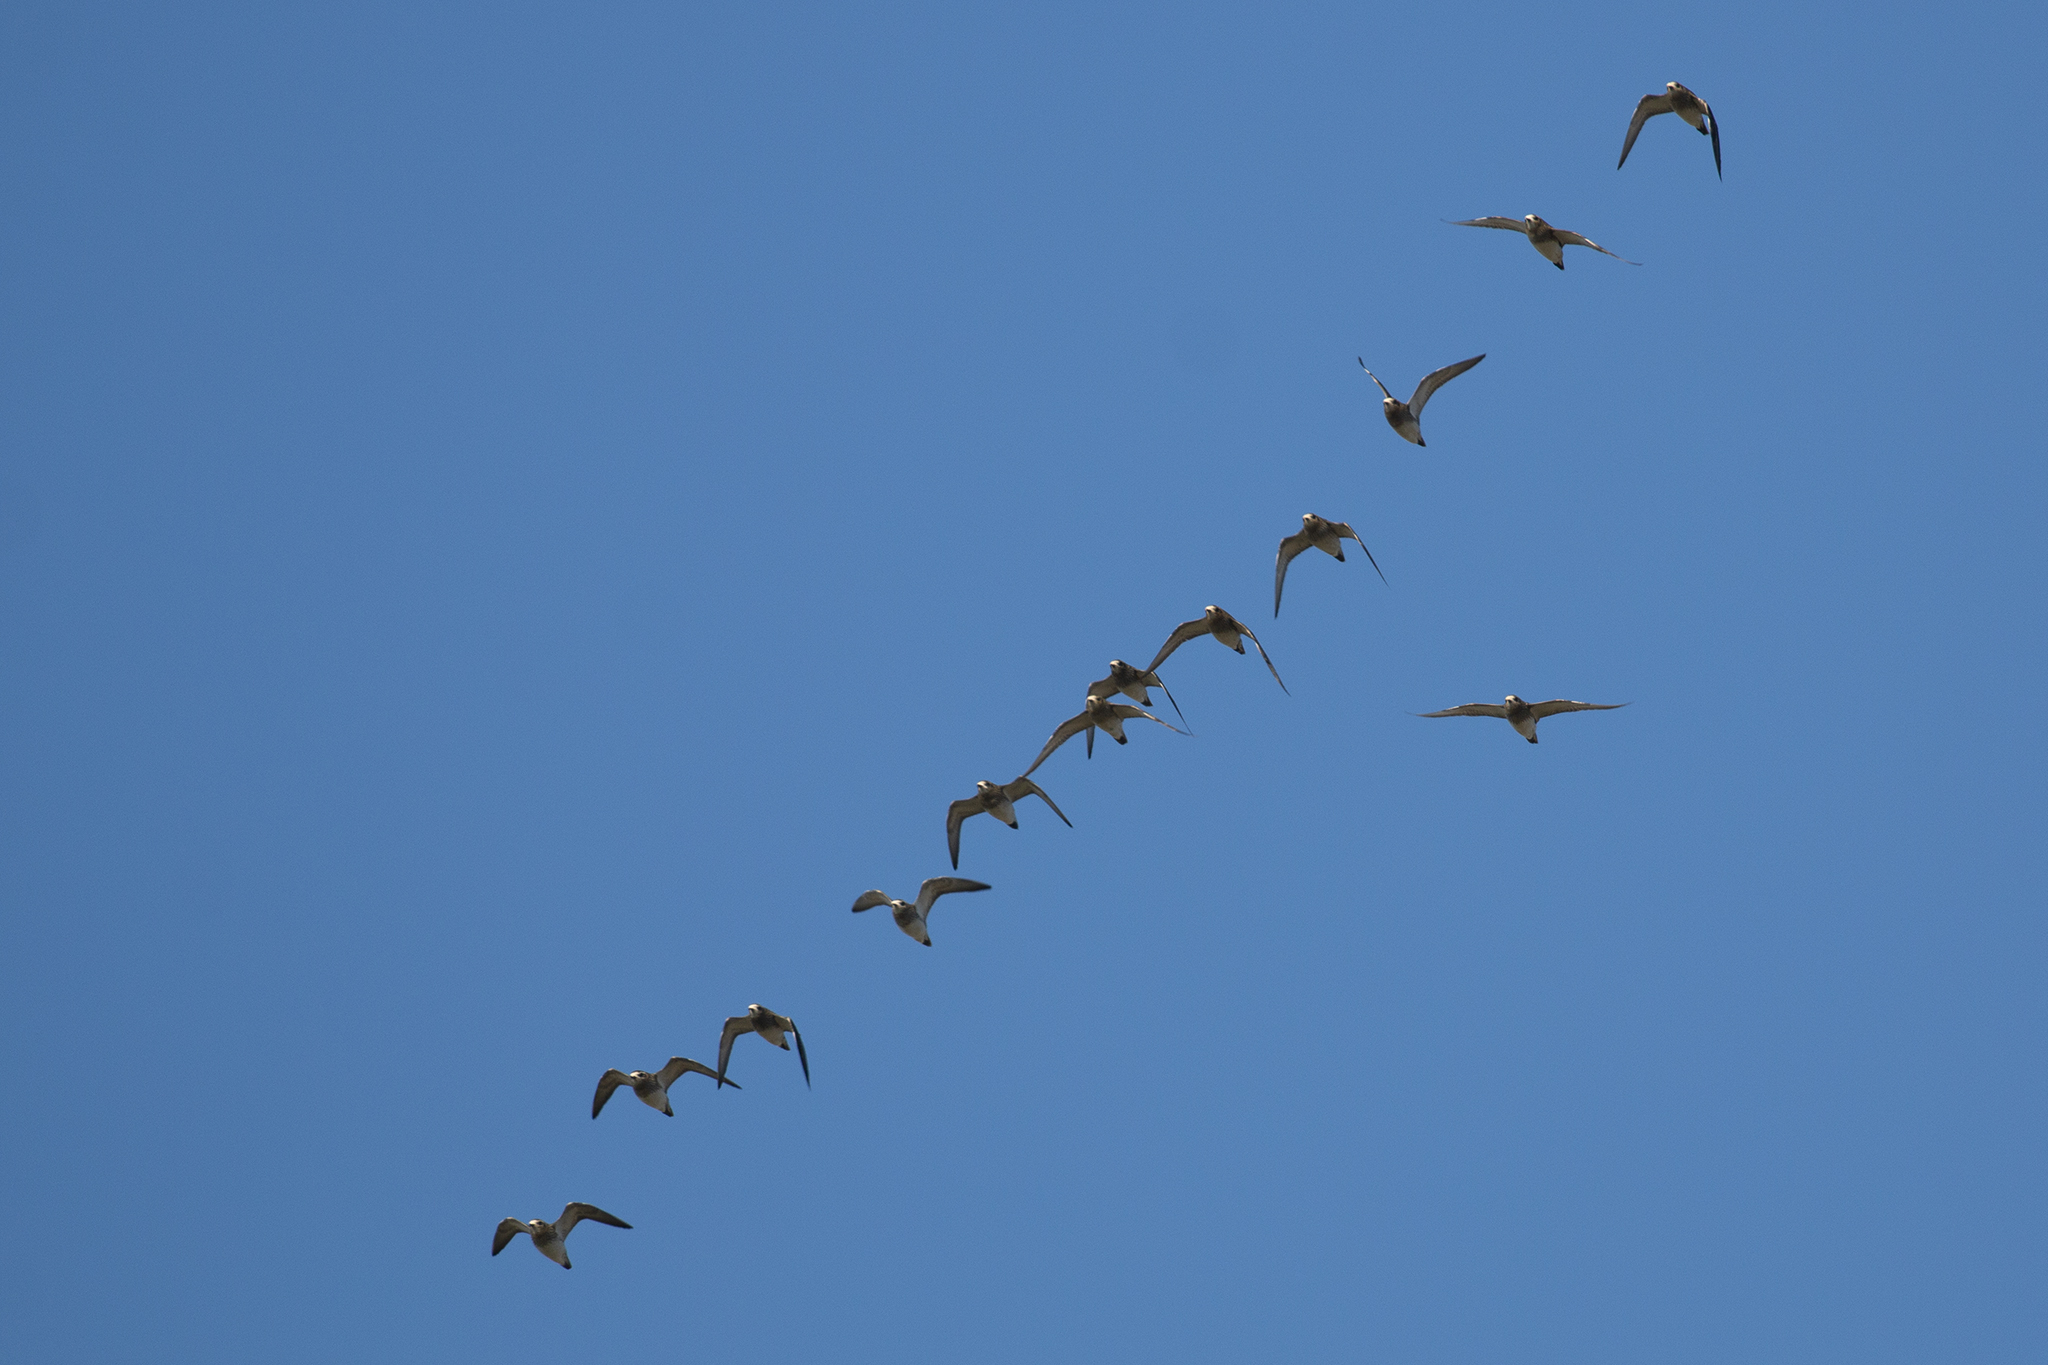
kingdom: Animalia
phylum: Chordata
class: Aves
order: Charadriiformes
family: Charadriidae
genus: Pluvialis
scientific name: Pluvialis apricaria
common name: European golden plover
